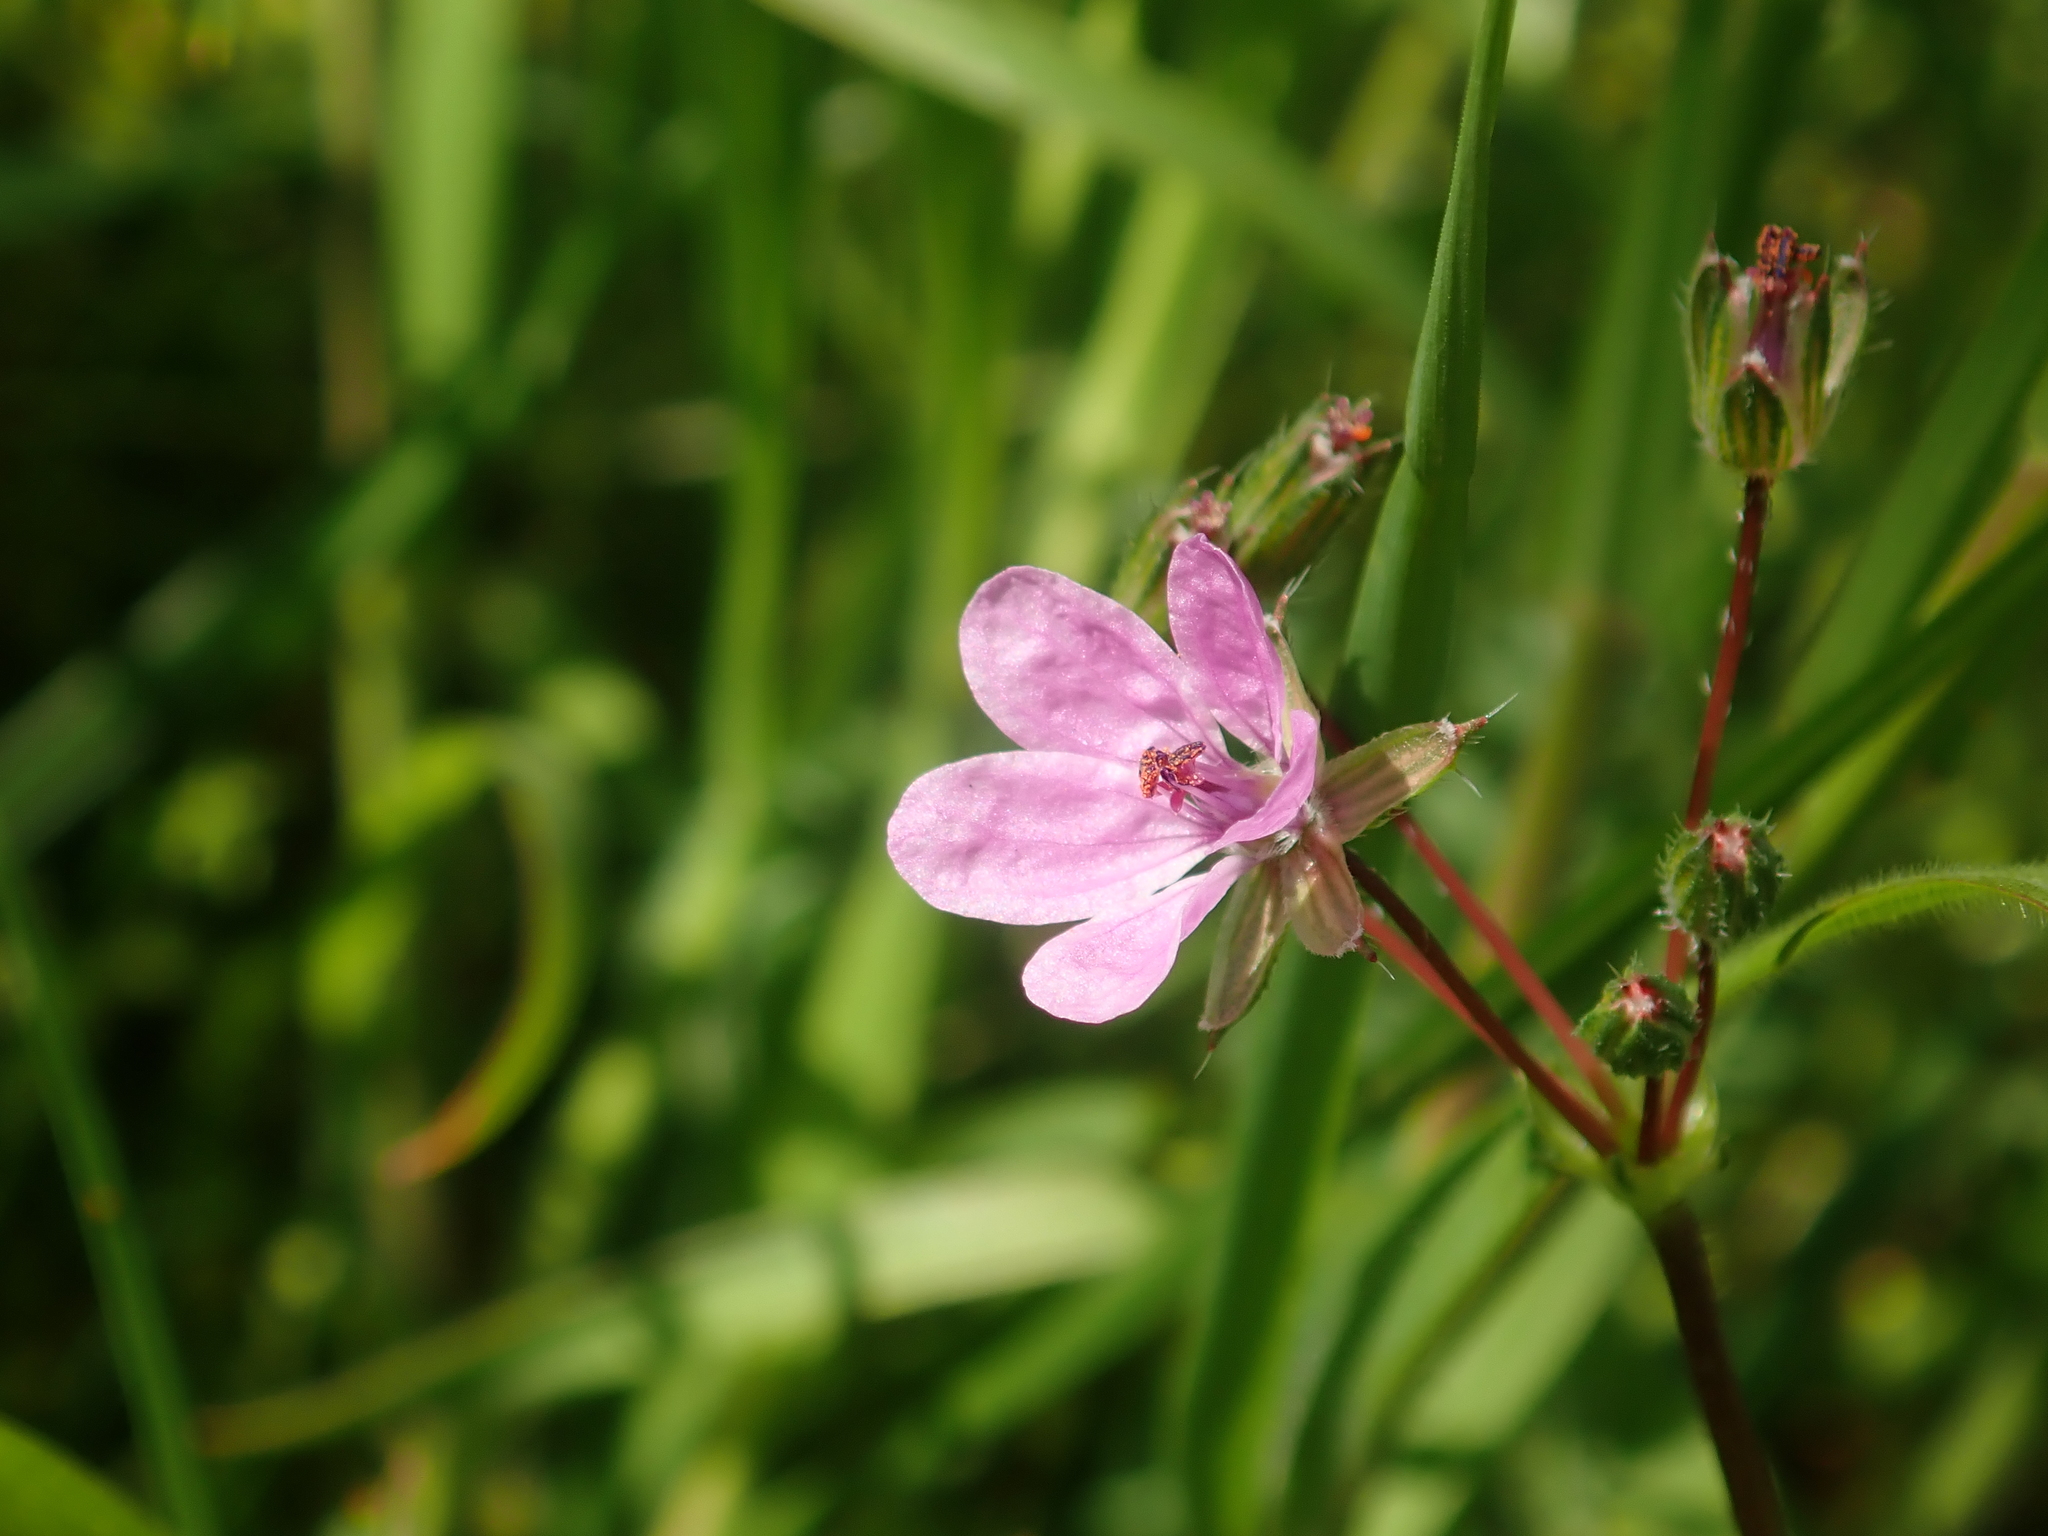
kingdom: Plantae
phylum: Tracheophyta
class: Magnoliopsida
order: Geraniales
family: Geraniaceae
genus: Erodium
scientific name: Erodium cicutarium
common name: Common stork's-bill
